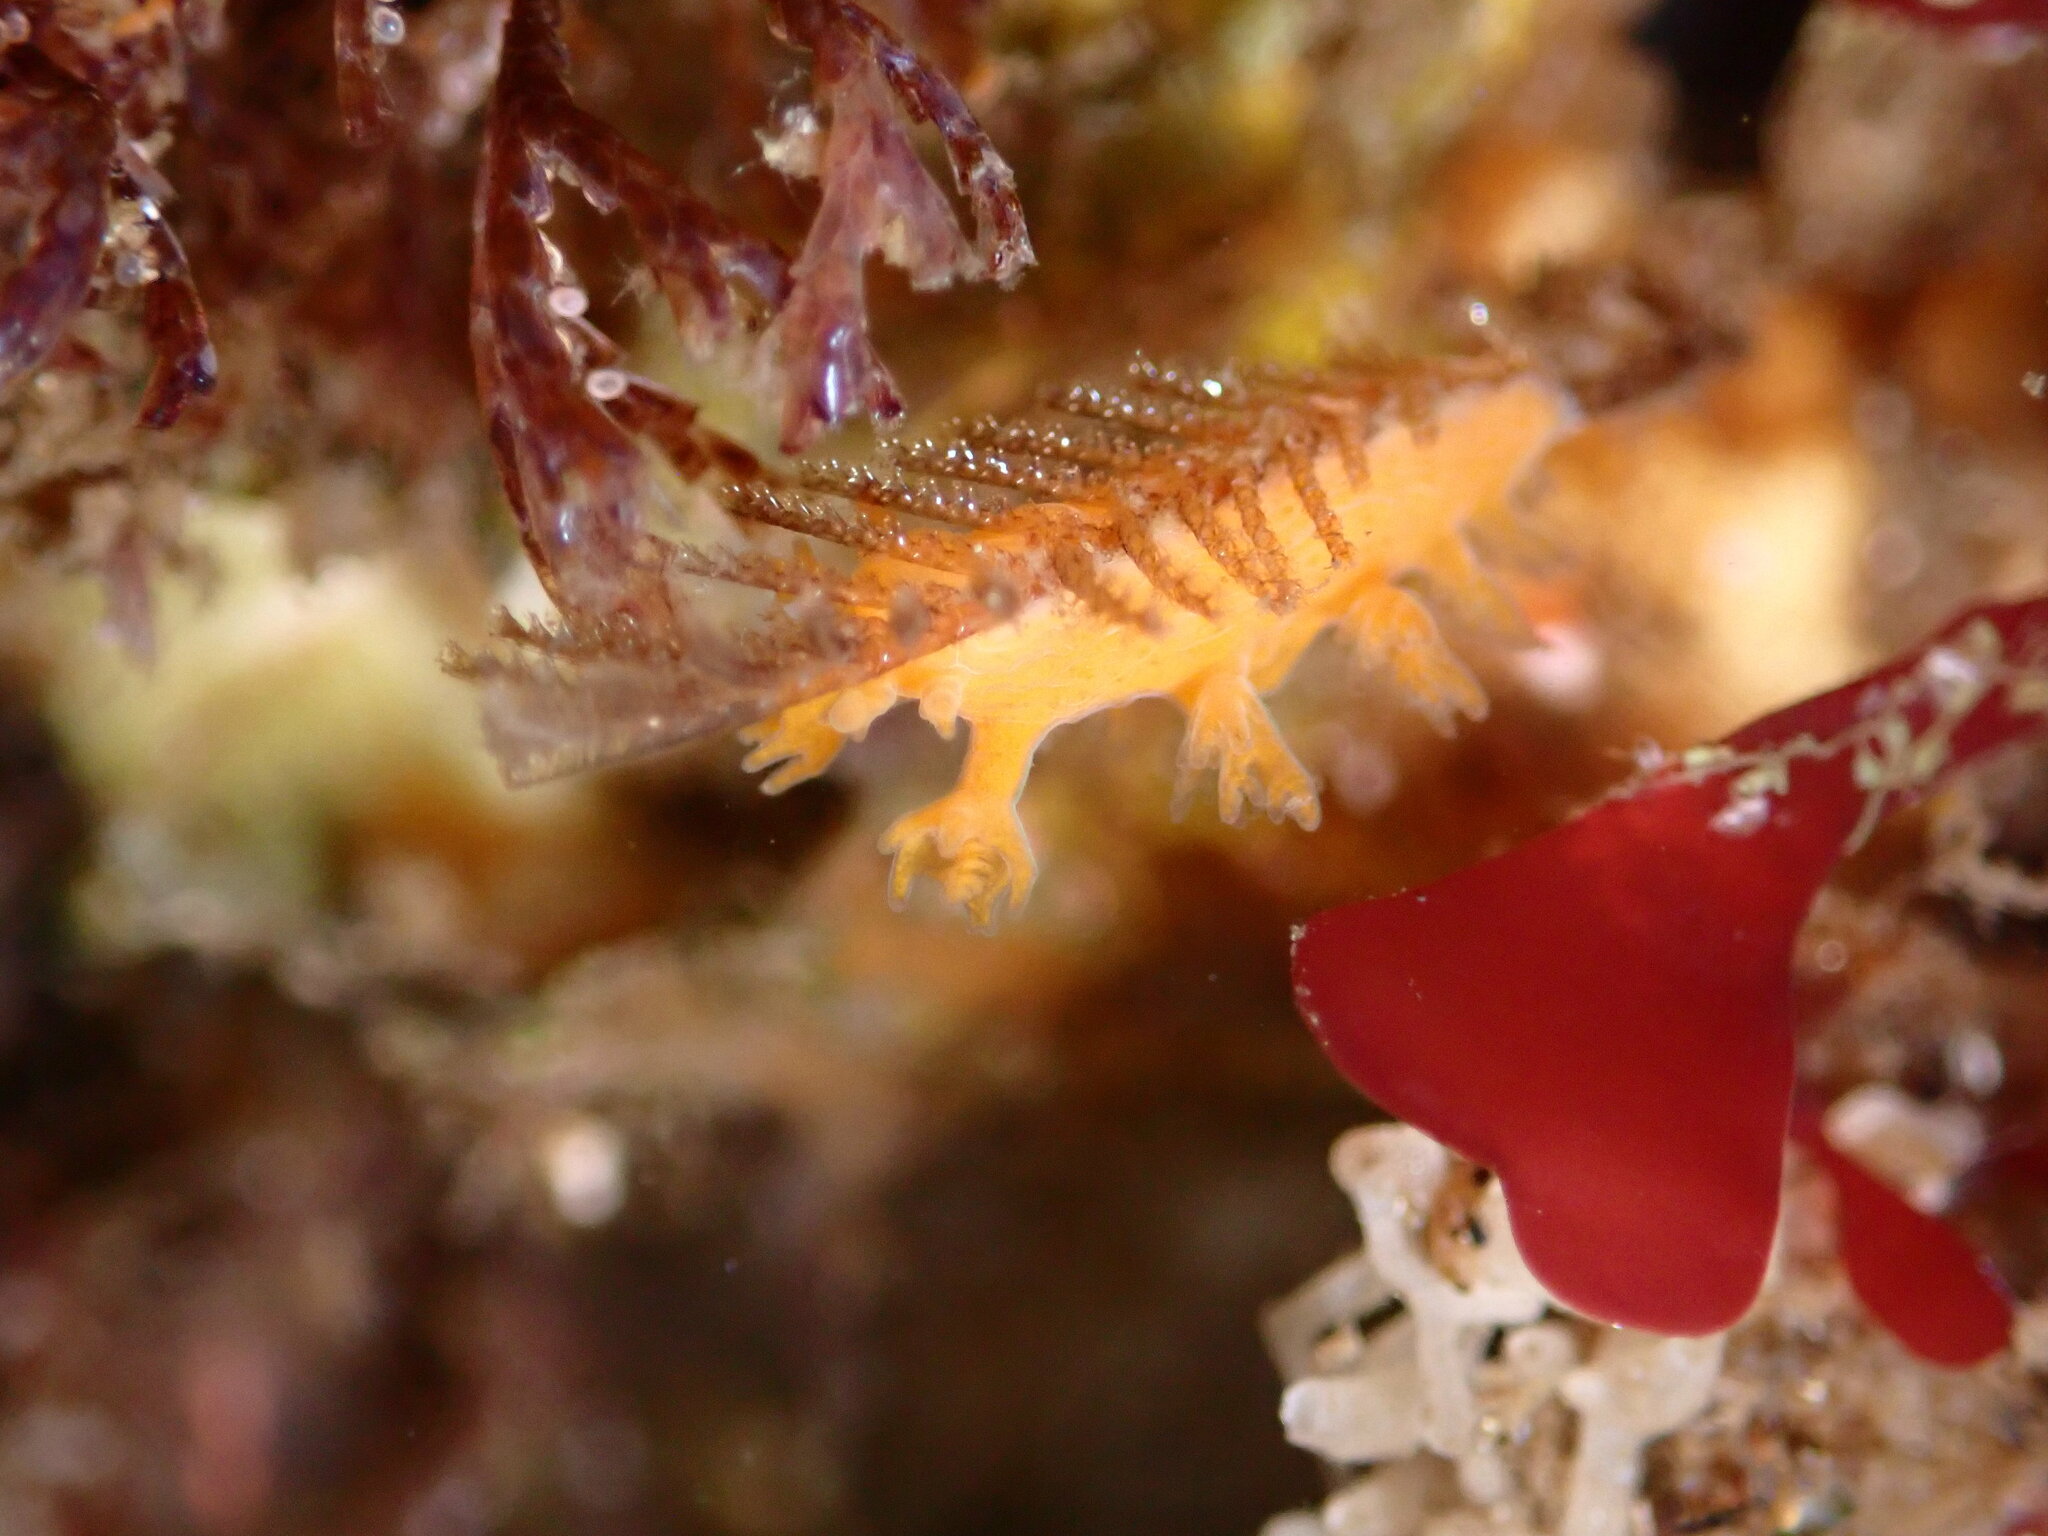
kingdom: Animalia
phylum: Mollusca
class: Gastropoda
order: Nudibranchia
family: Dendronotidae
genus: Dendronotus
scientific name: Dendronotus subramosus
